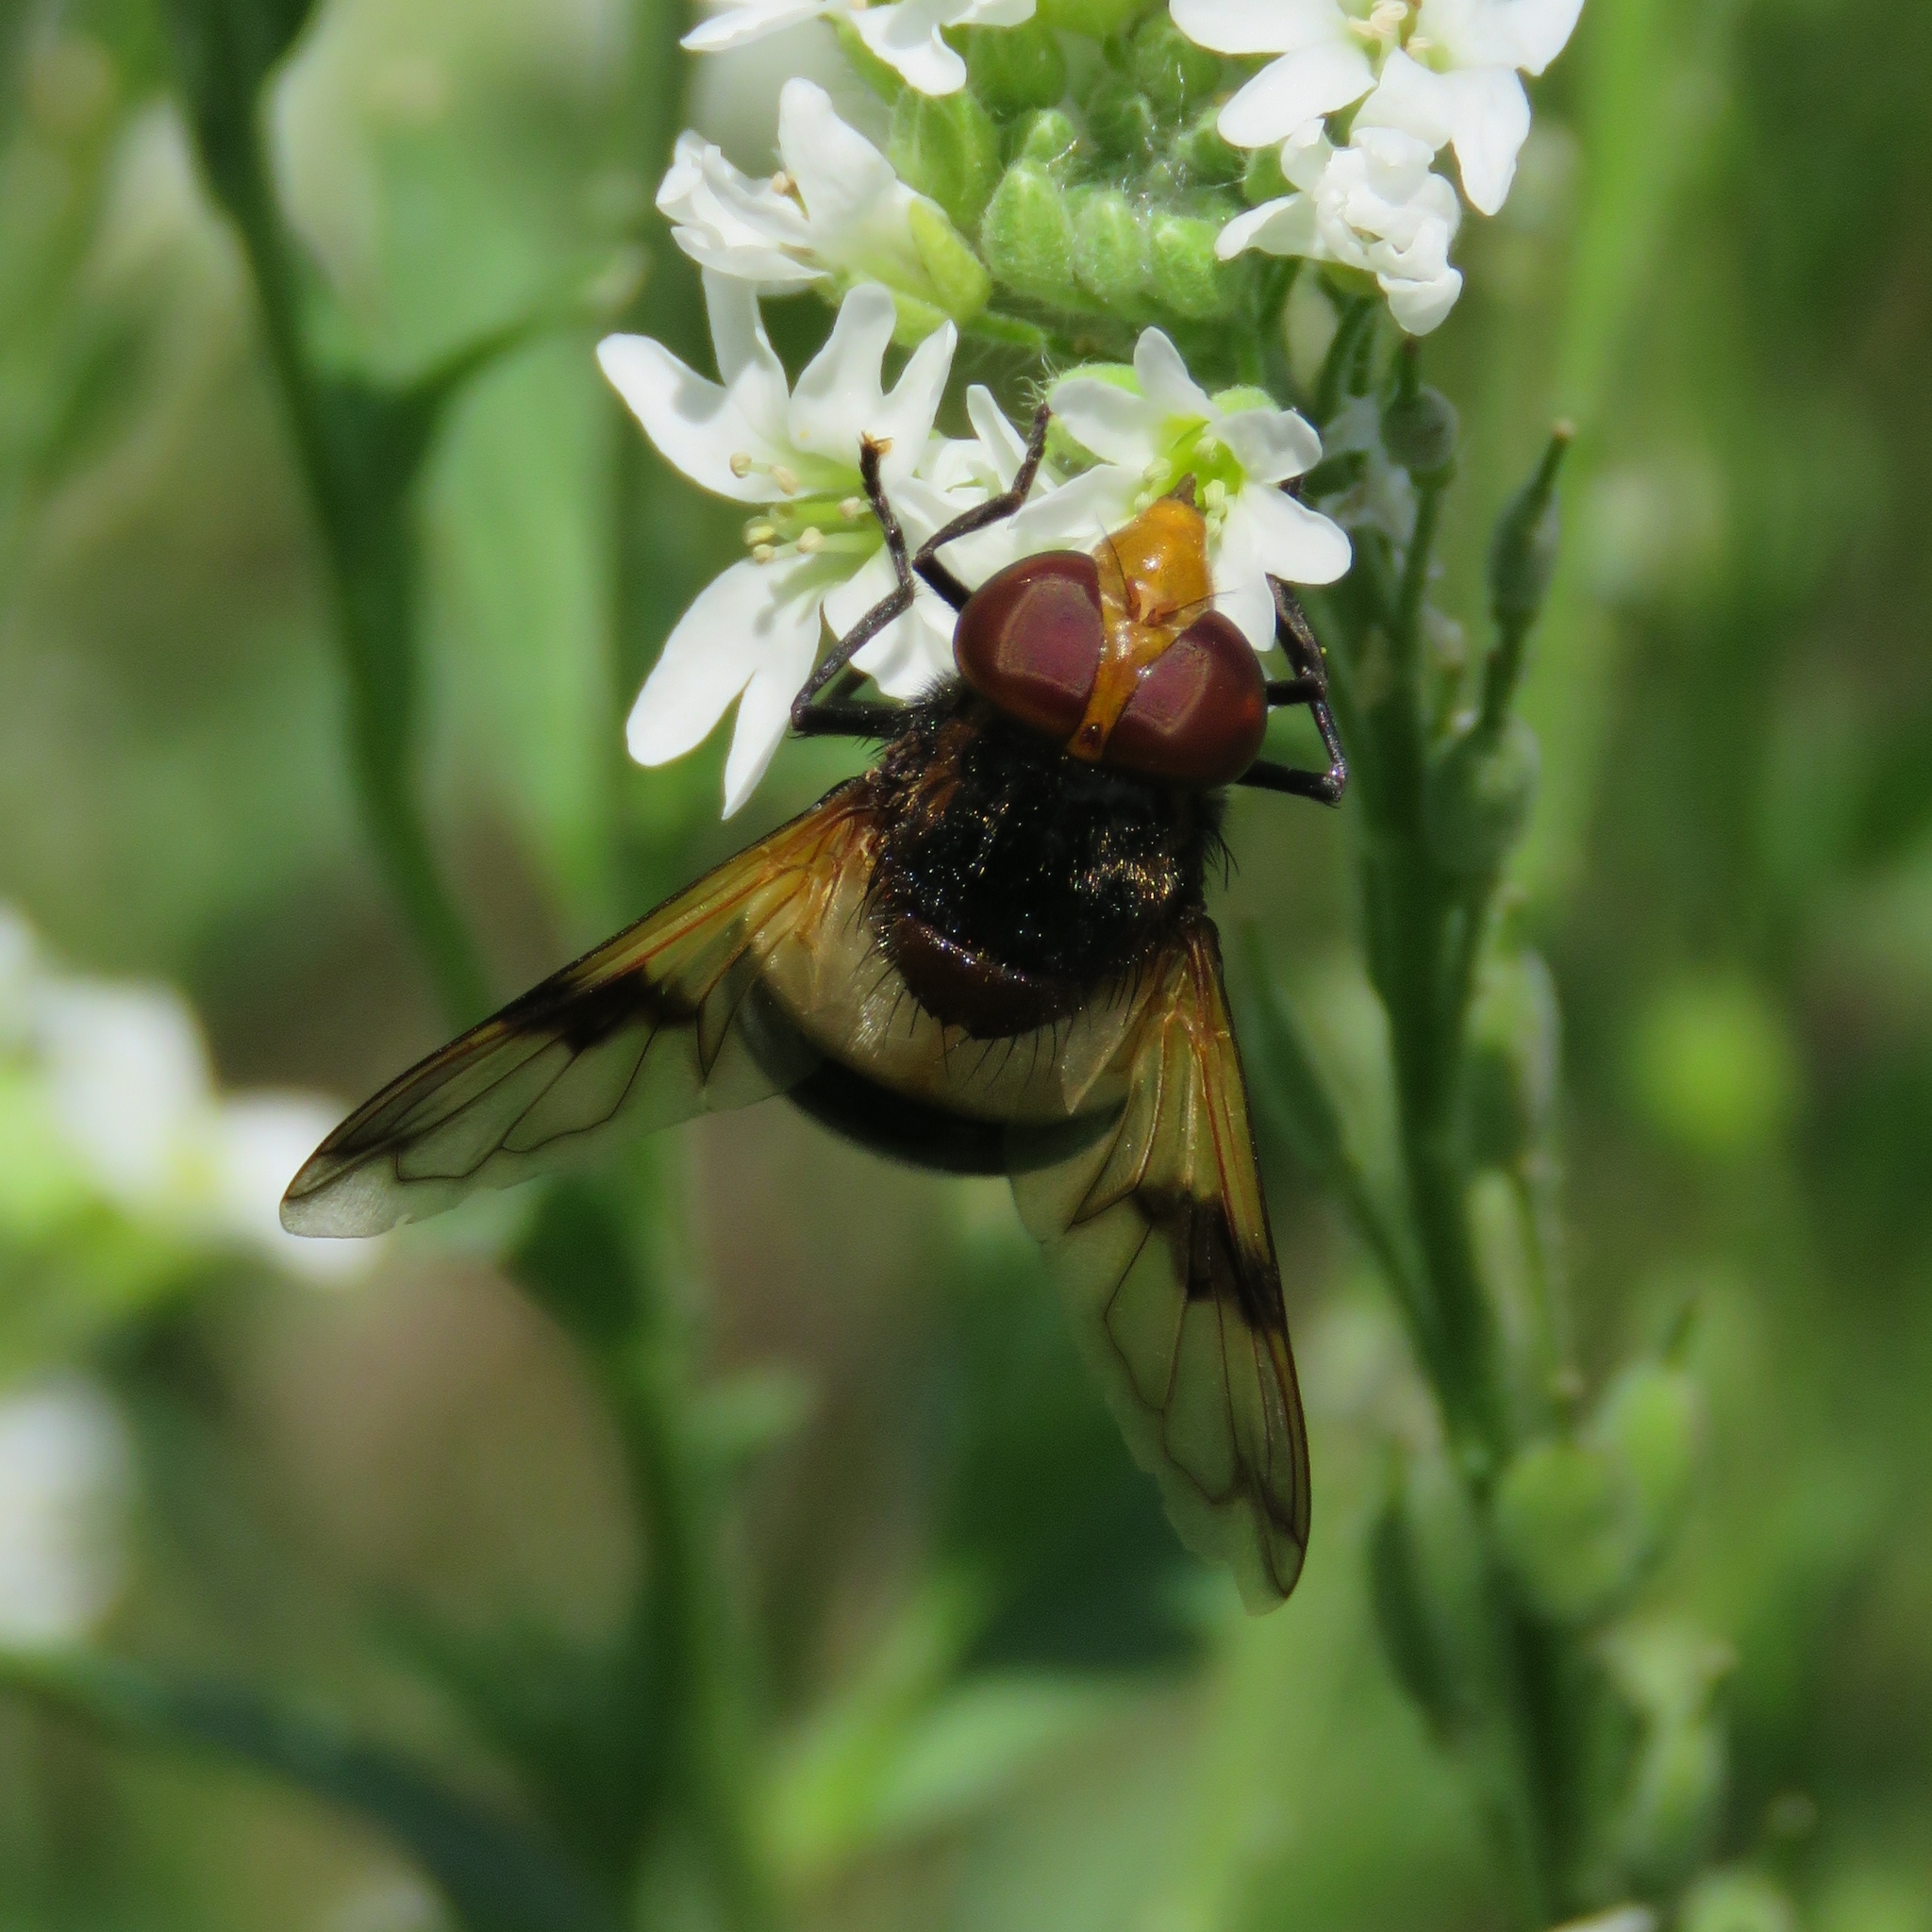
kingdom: Animalia
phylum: Arthropoda
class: Insecta
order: Diptera
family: Syrphidae
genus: Volucella
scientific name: Volucella pellucens
